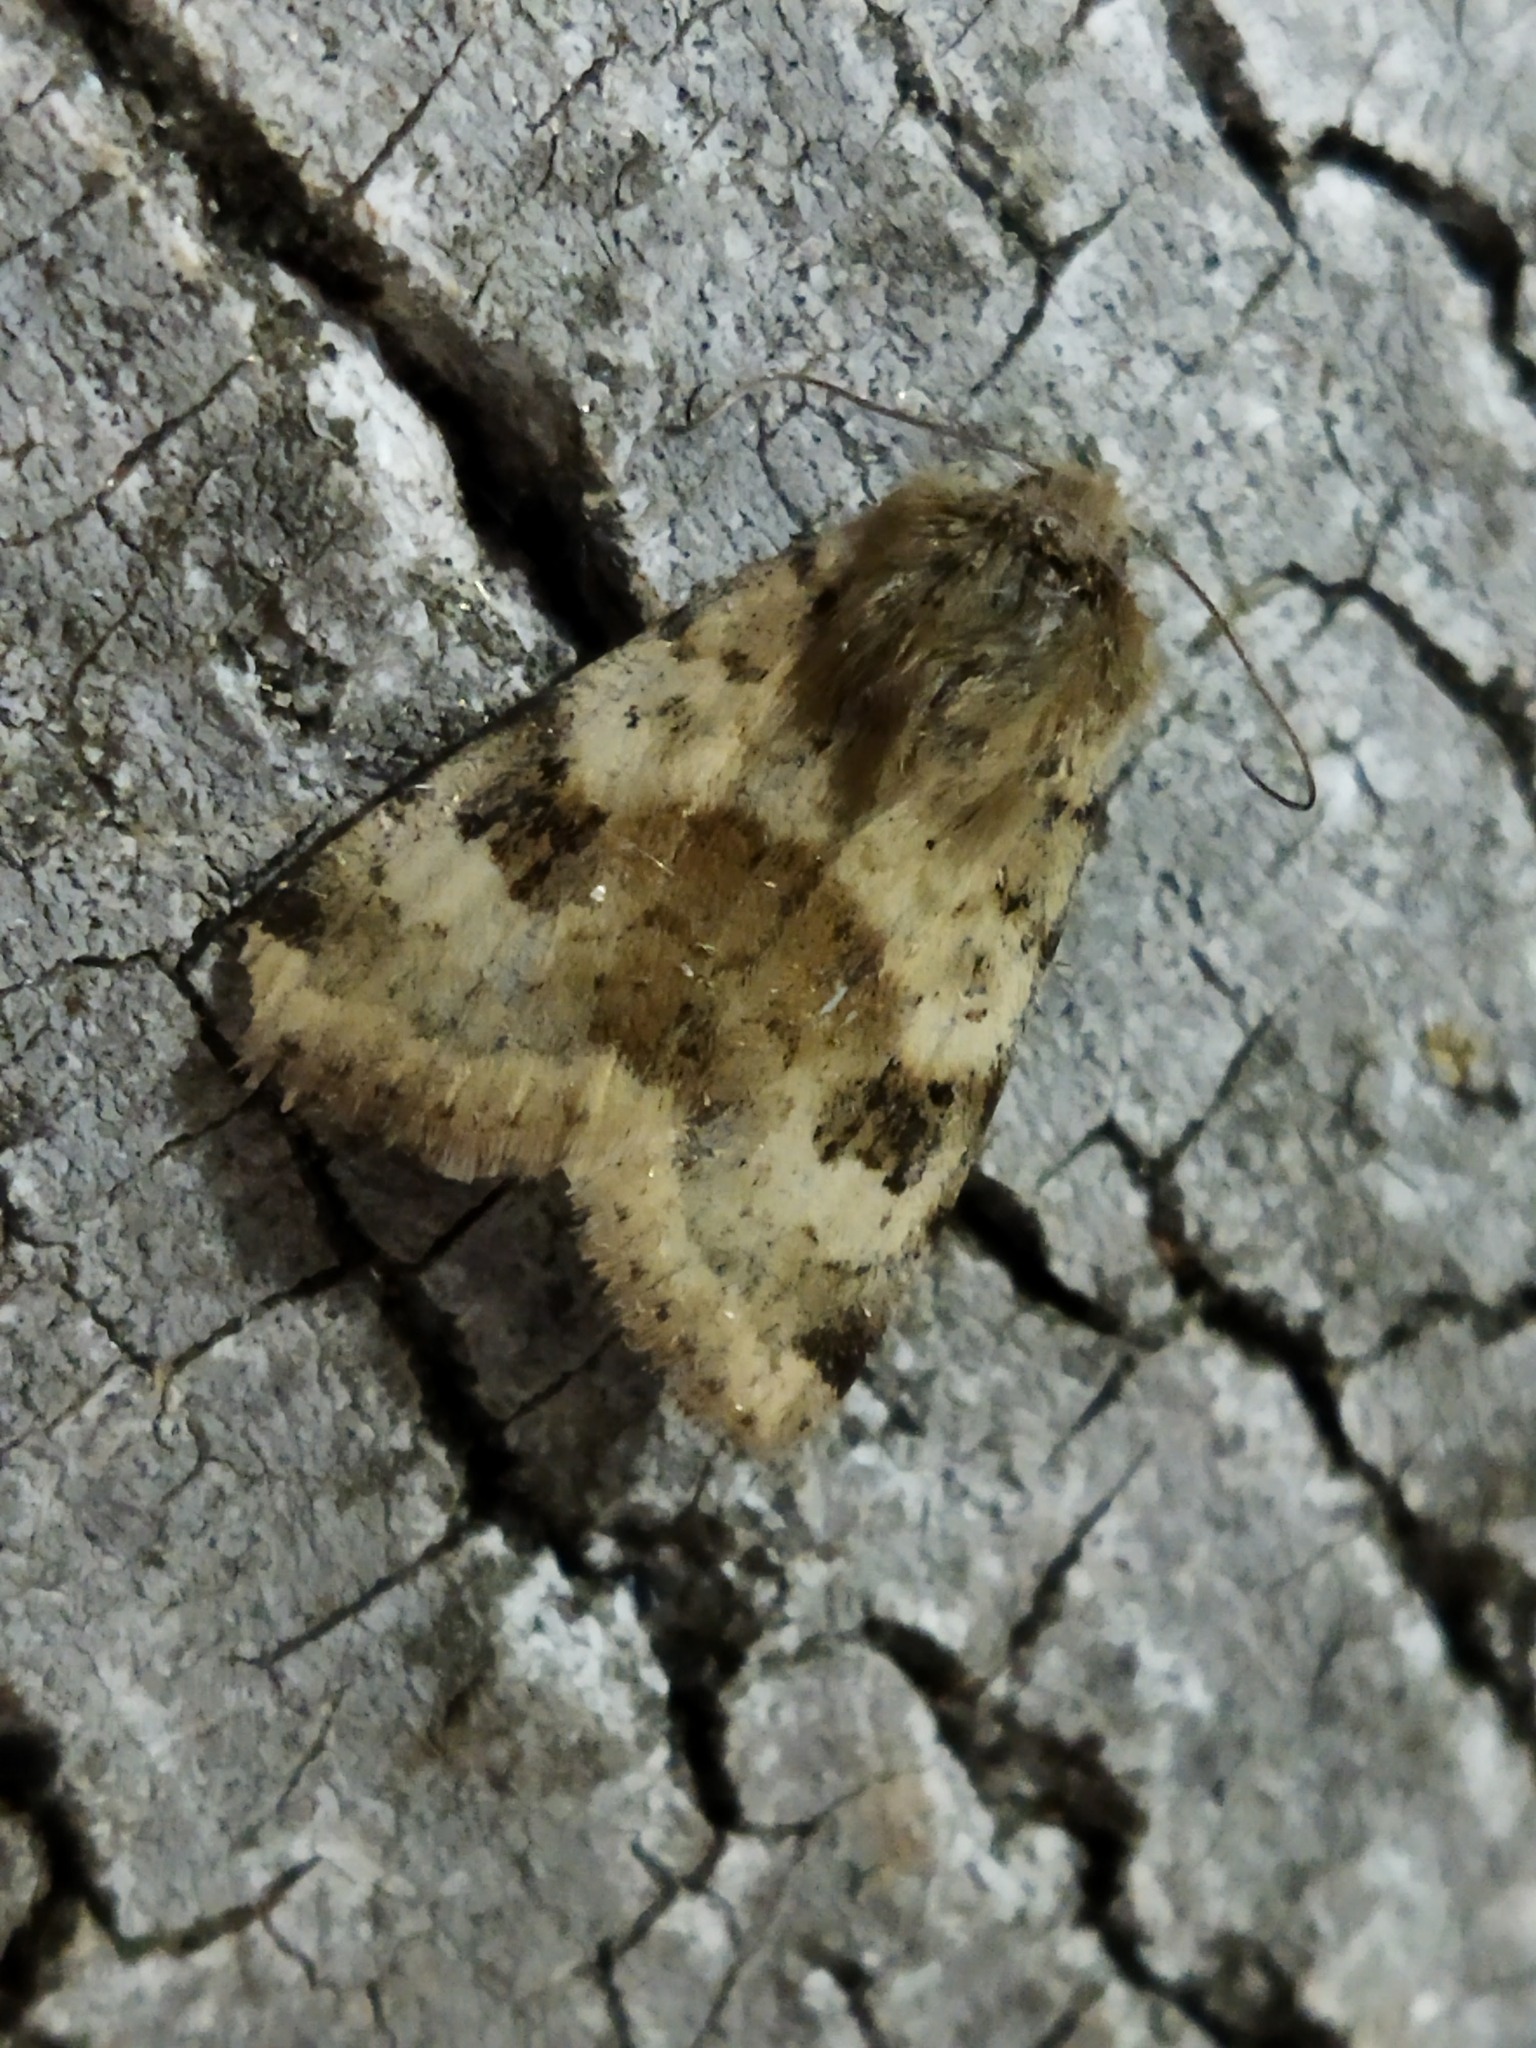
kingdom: Animalia
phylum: Arthropoda
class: Insecta
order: Lepidoptera
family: Noctuidae
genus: Heliothis
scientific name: Heliothis viriplaca
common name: Marbled clover
